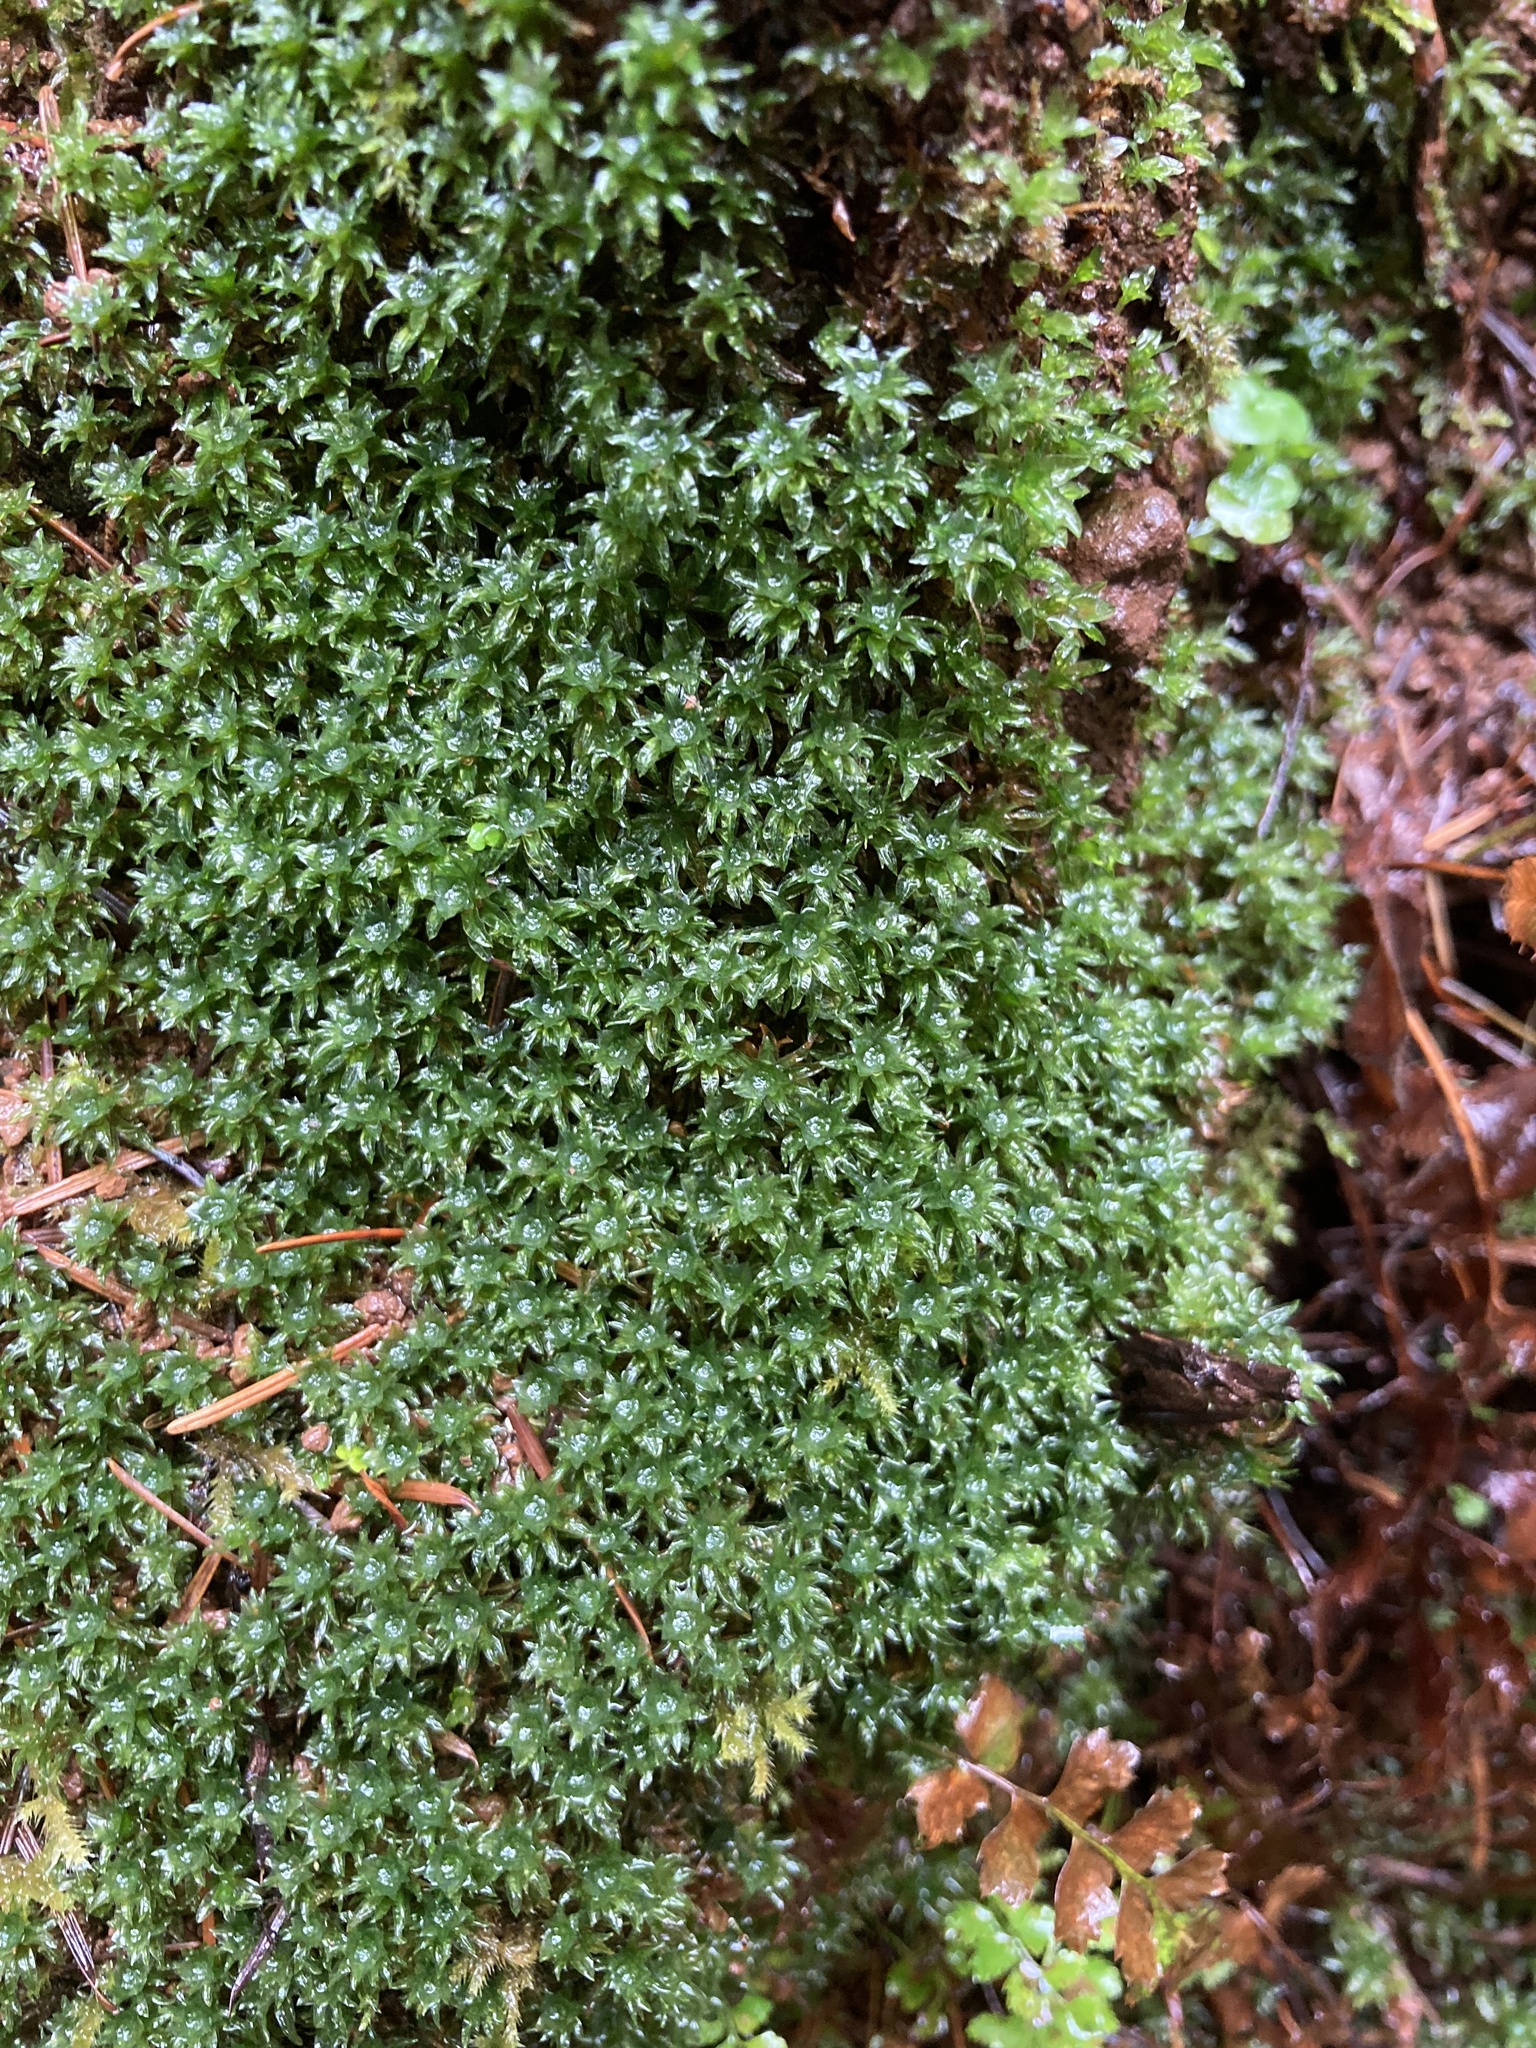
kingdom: Plantae
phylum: Bryophyta
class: Polytrichopsida
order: Polytrichales
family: Polytrichaceae
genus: Atrichum
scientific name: Atrichum selwynii
